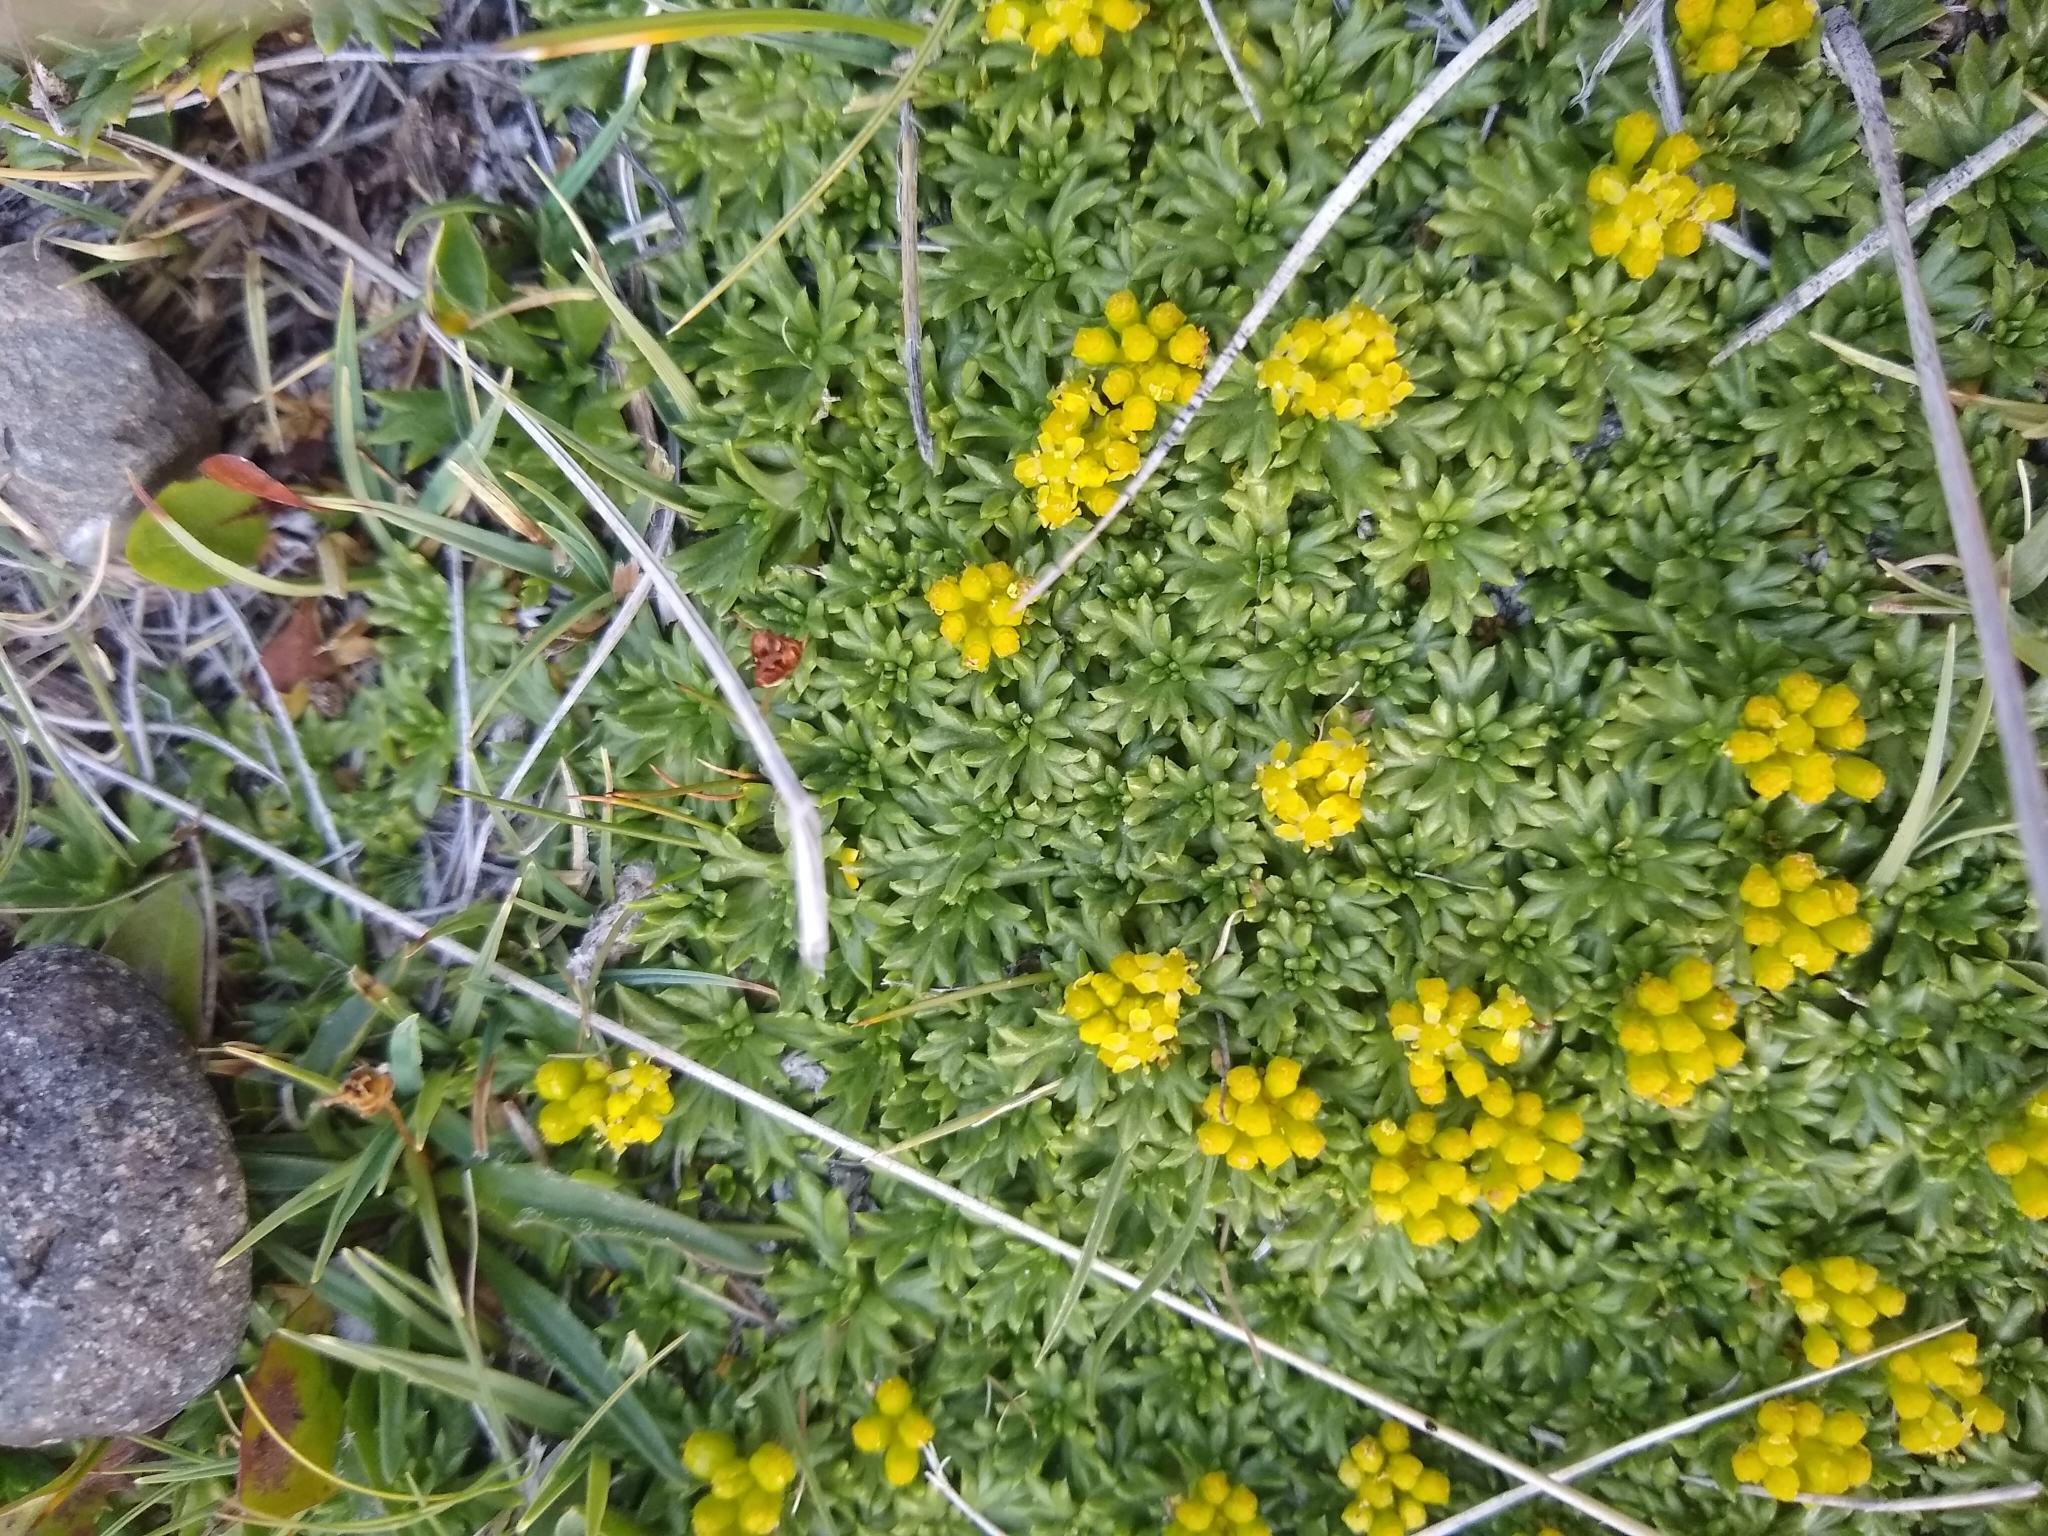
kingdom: Plantae
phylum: Tracheophyta
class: Magnoliopsida
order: Apiales
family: Apiaceae
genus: Azorella
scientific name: Azorella trifurcata
